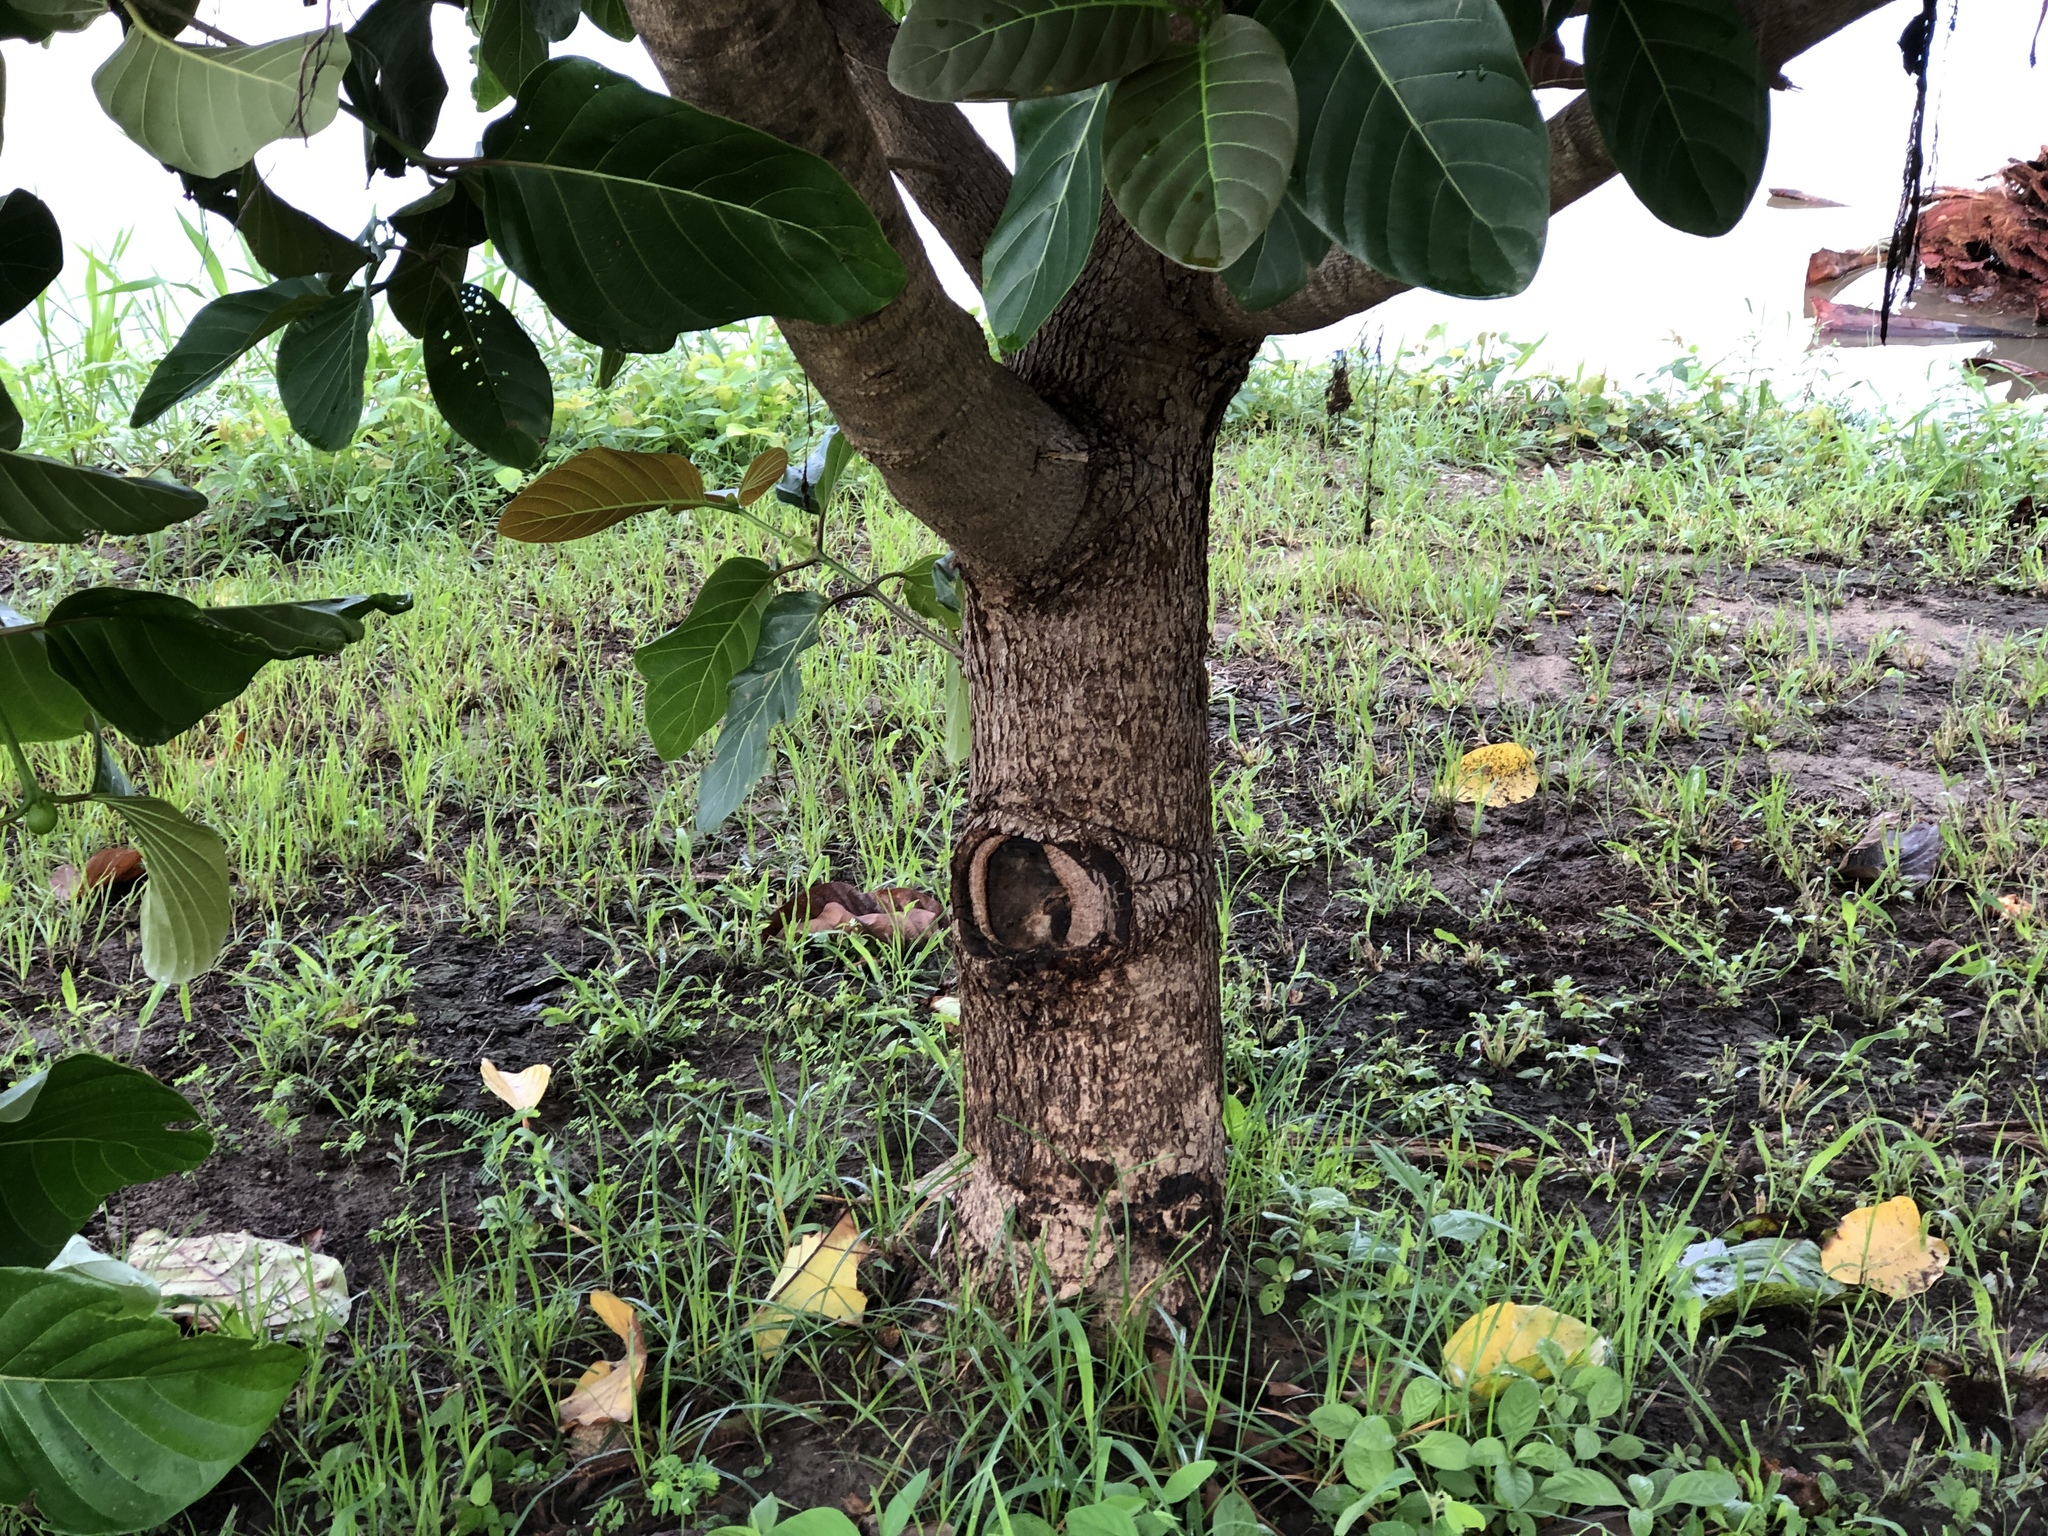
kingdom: Plantae
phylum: Tracheophyta
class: Magnoliopsida
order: Gentianales
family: Rubiaceae
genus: Nauclea
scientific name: Nauclea orientalis
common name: Leichhardt-pine
